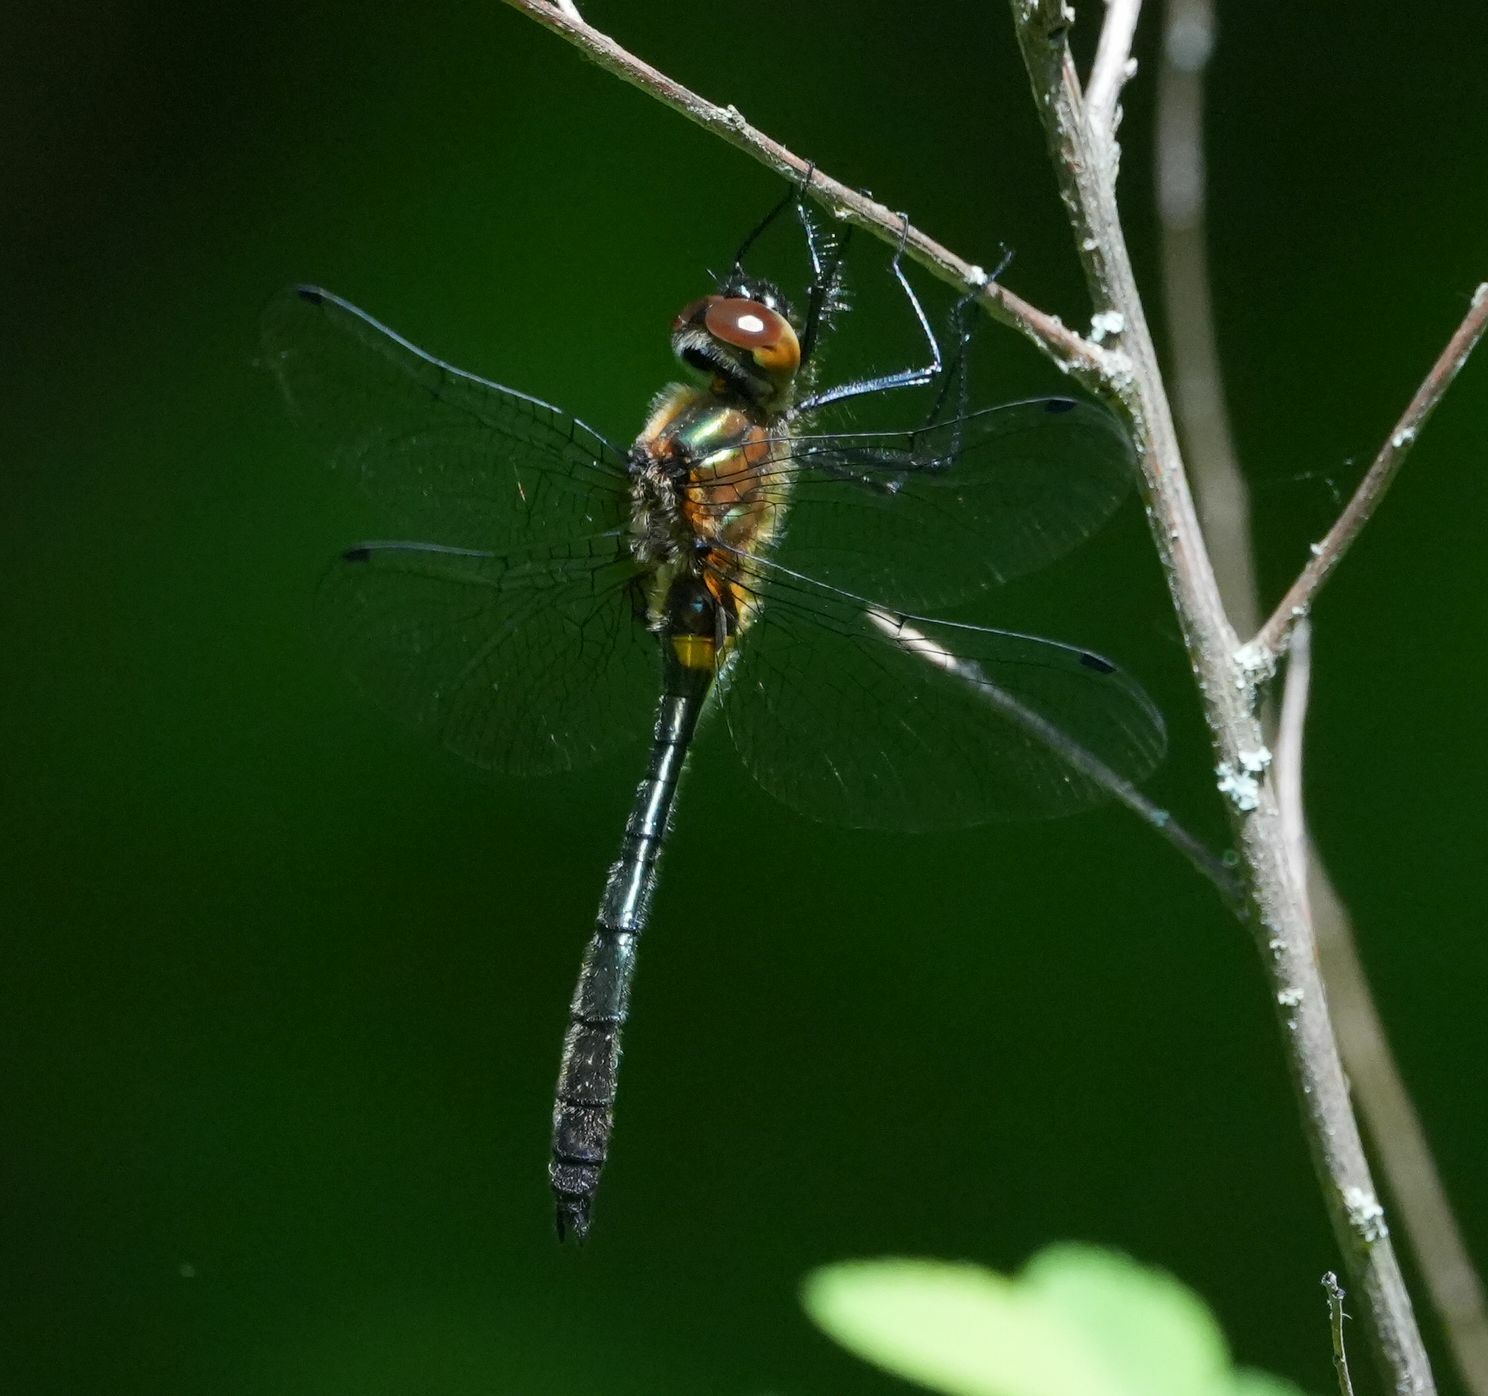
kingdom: Animalia
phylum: Arthropoda
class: Insecta
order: Odonata
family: Corduliidae
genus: Dorocordulia
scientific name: Dorocordulia libera
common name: Racket-tailed emerald
